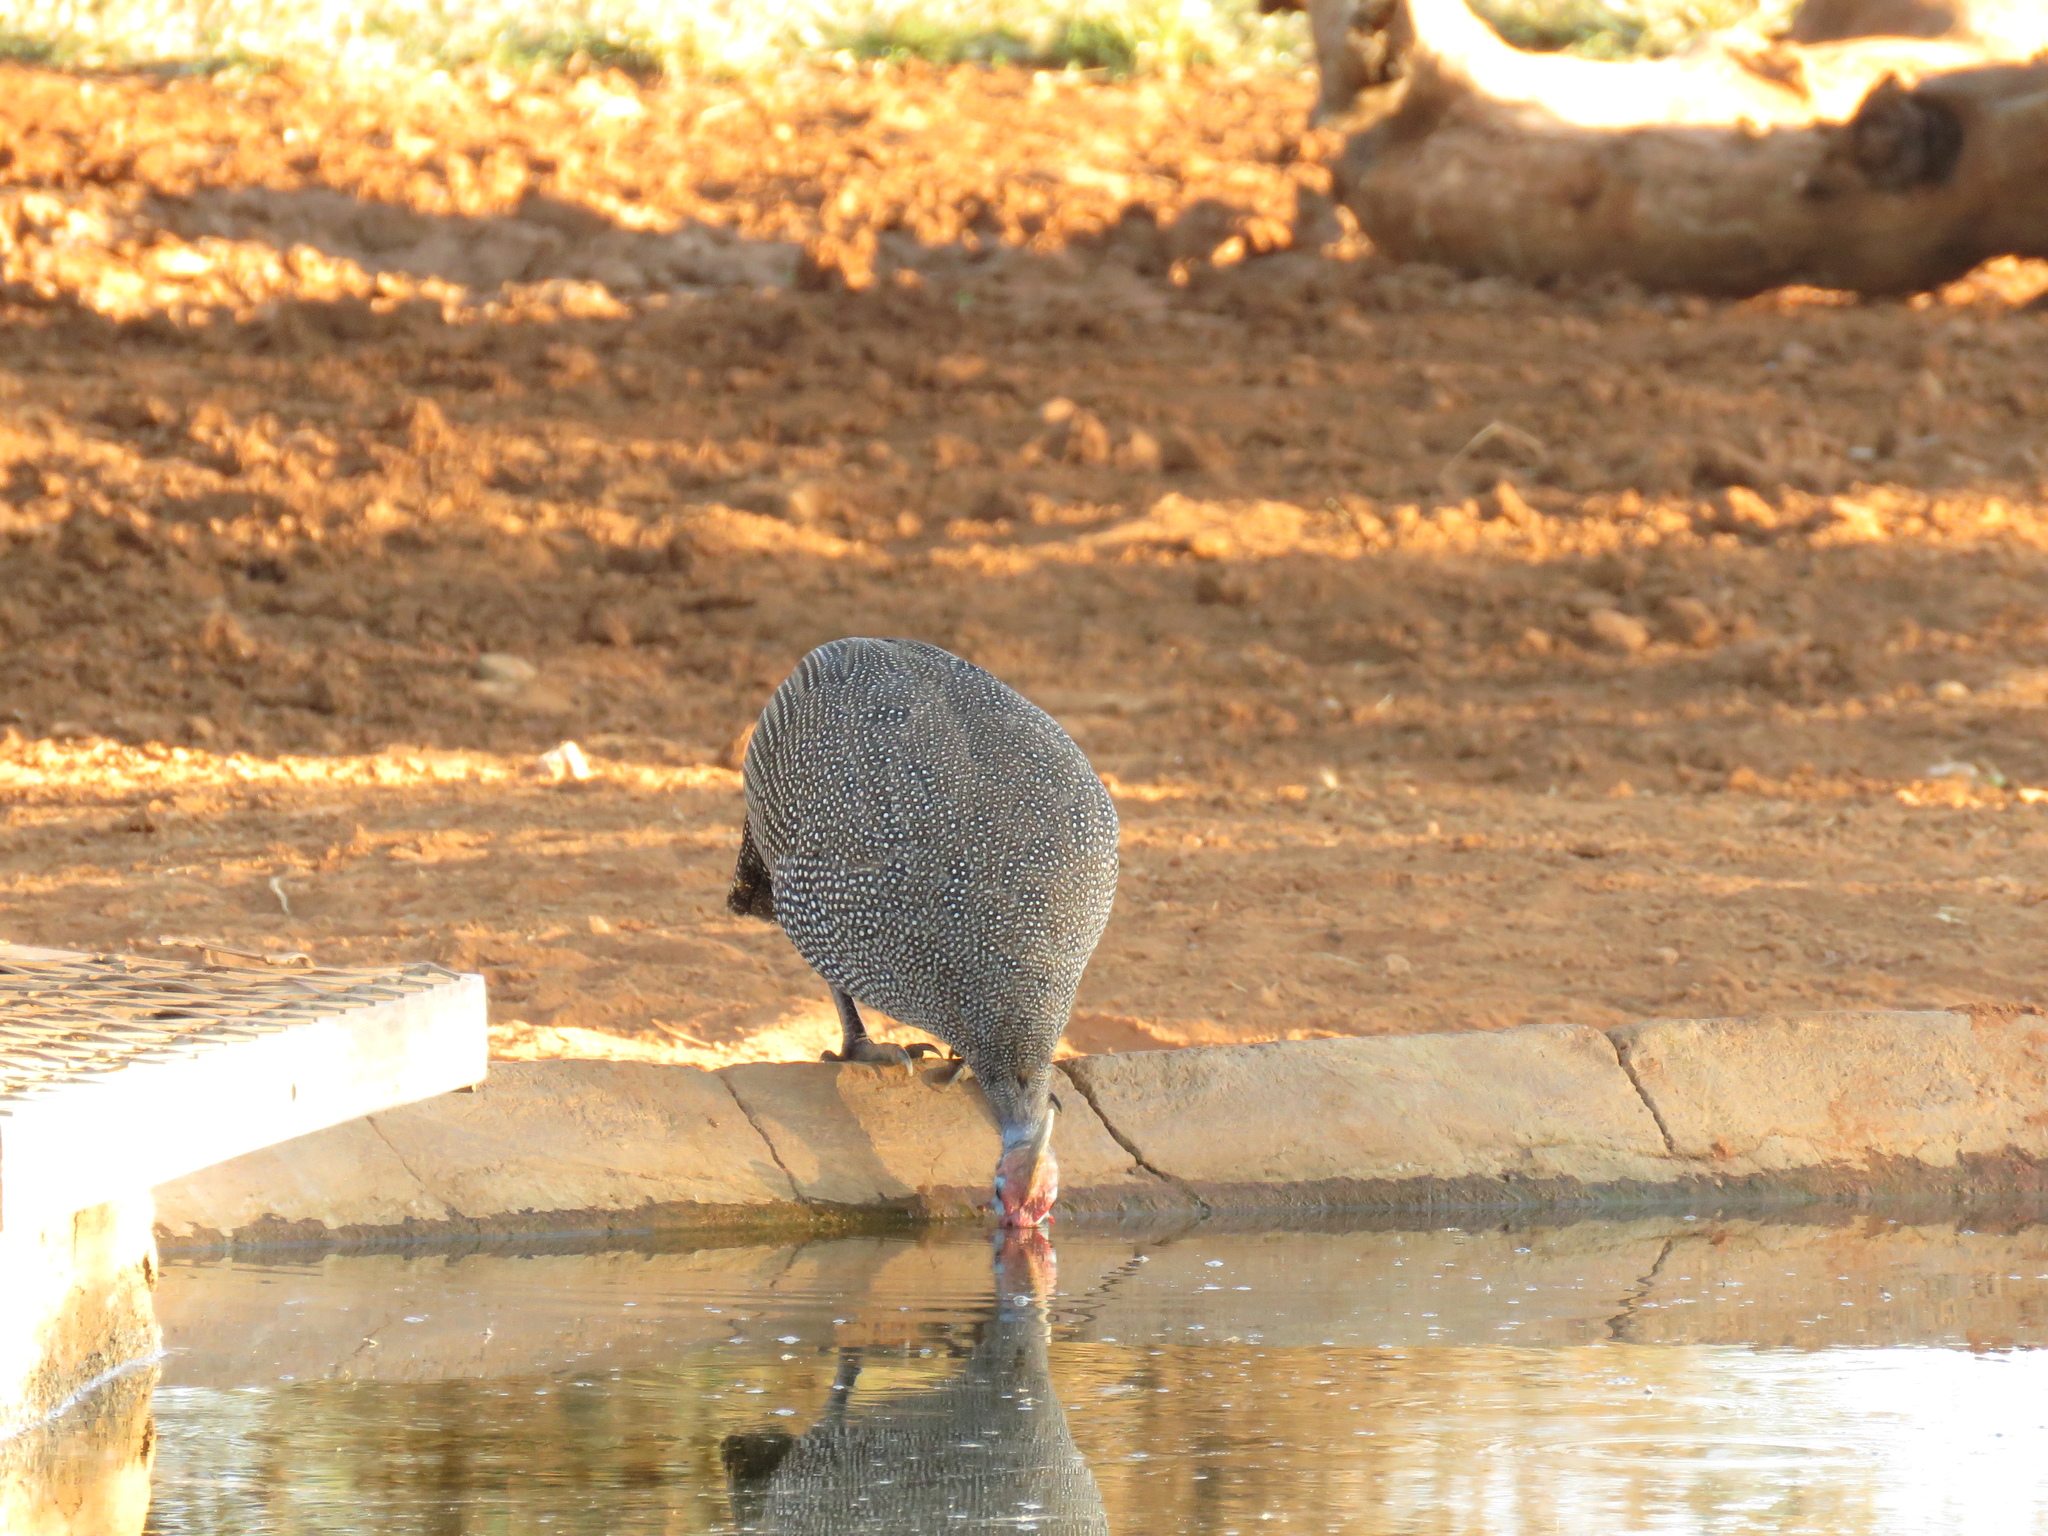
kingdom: Animalia
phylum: Chordata
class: Aves
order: Galliformes
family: Numididae
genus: Numida
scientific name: Numida meleagris
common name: Helmeted guineafowl
